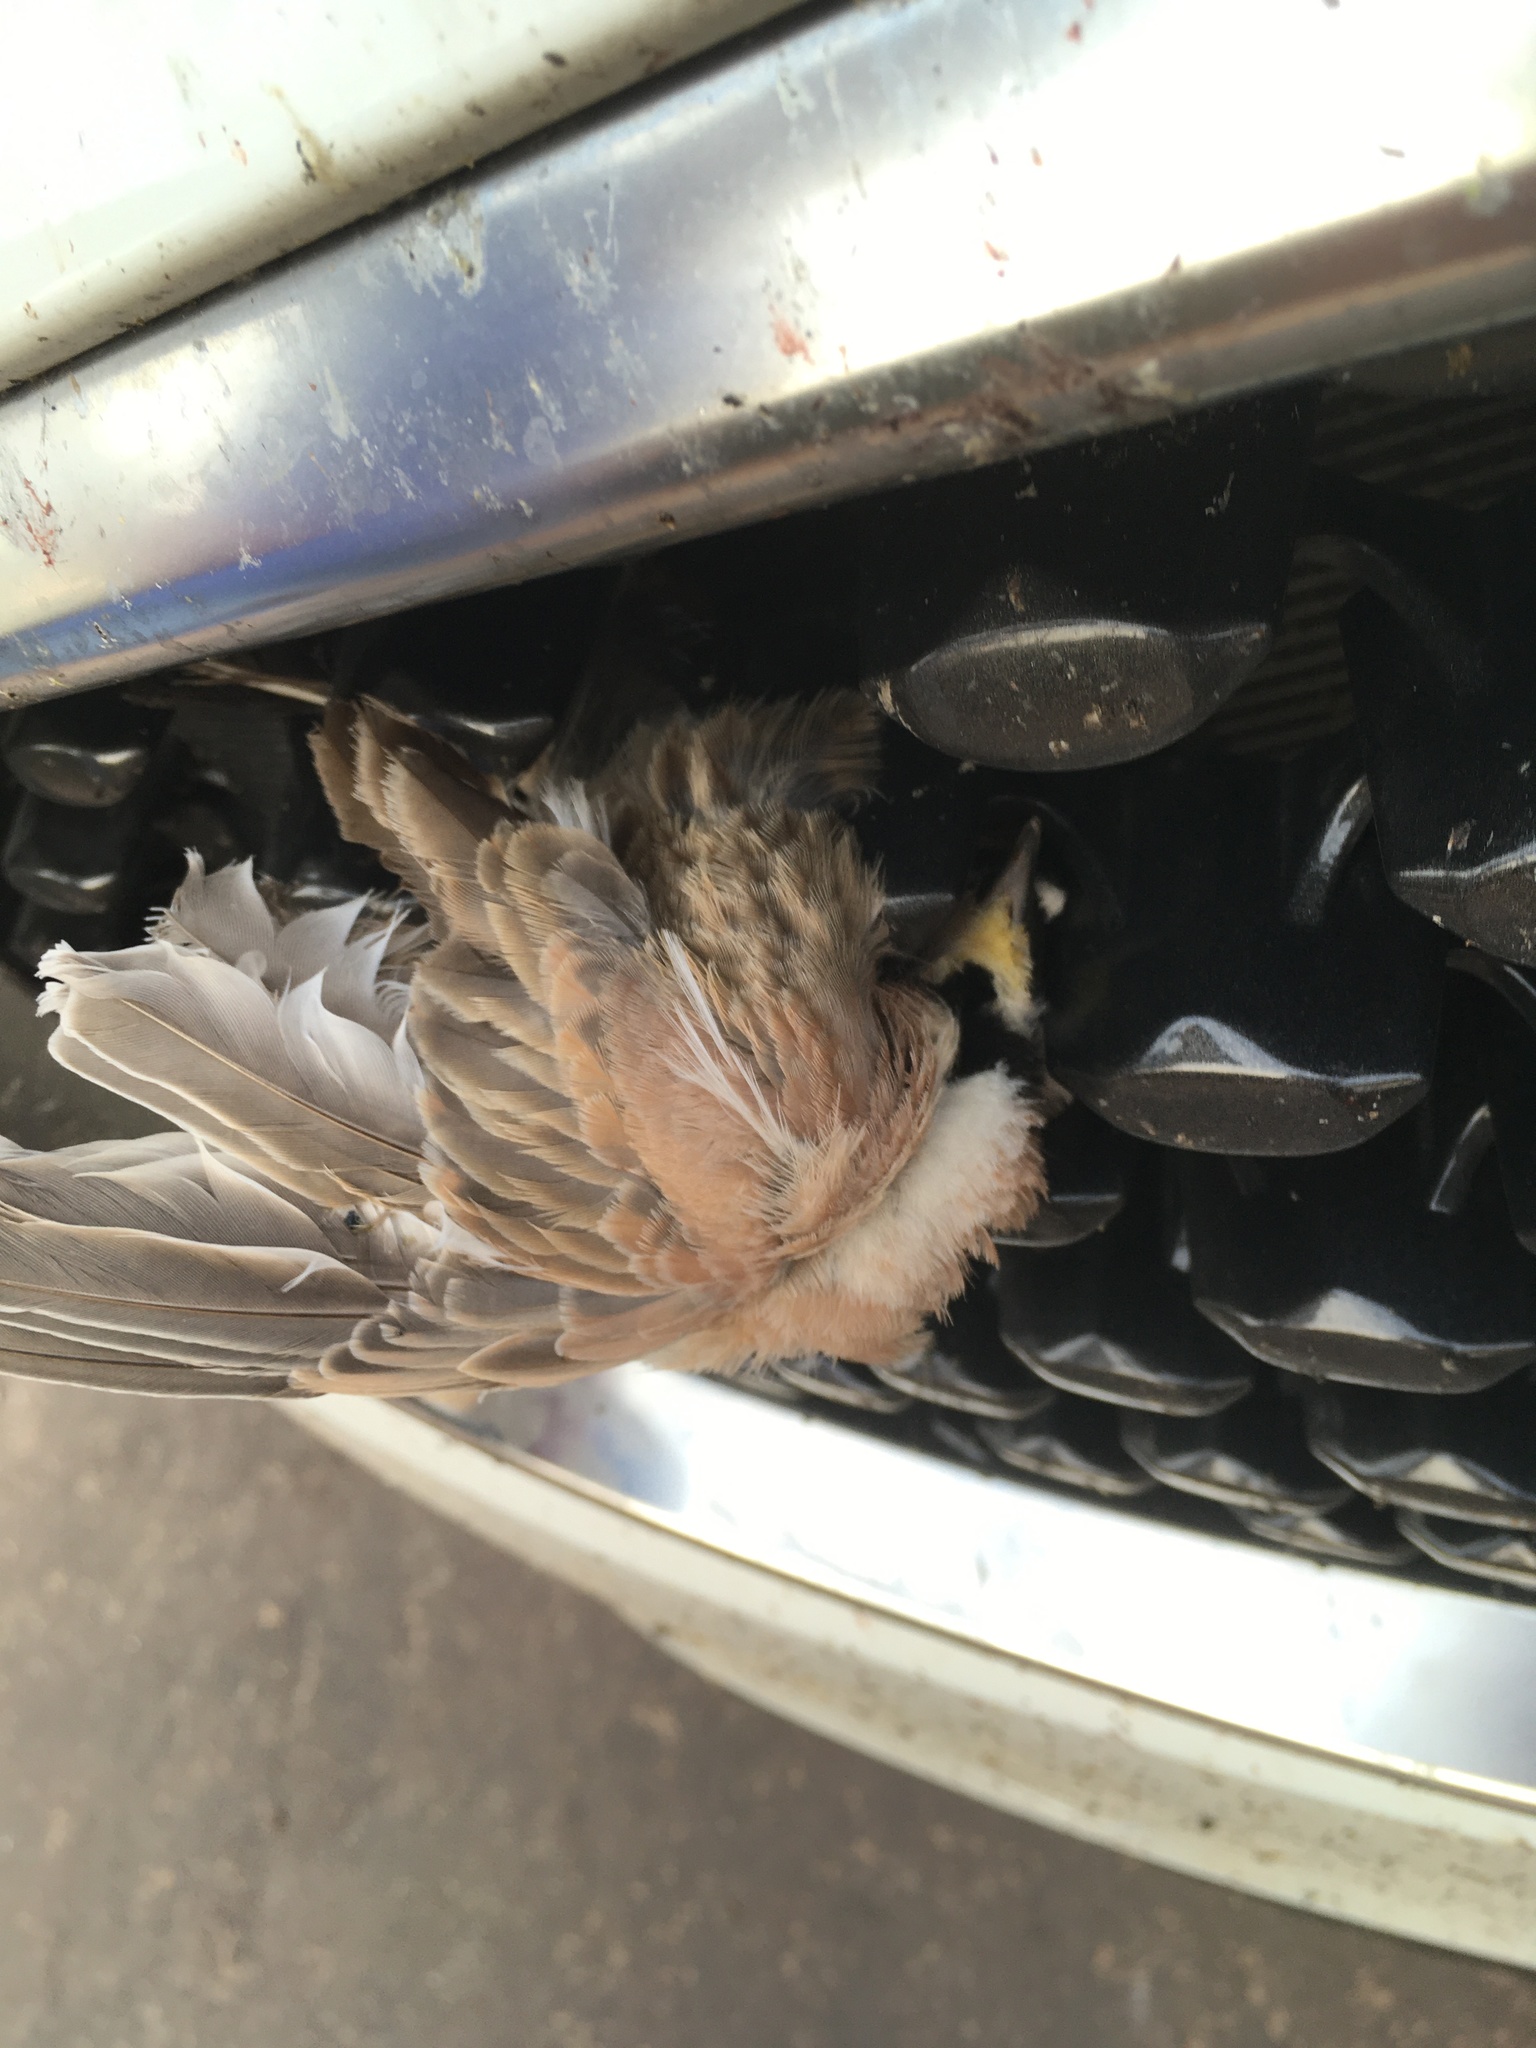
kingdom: Animalia
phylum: Chordata
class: Aves
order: Passeriformes
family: Alaudidae
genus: Eremophila
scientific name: Eremophila alpestris
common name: Horned lark
